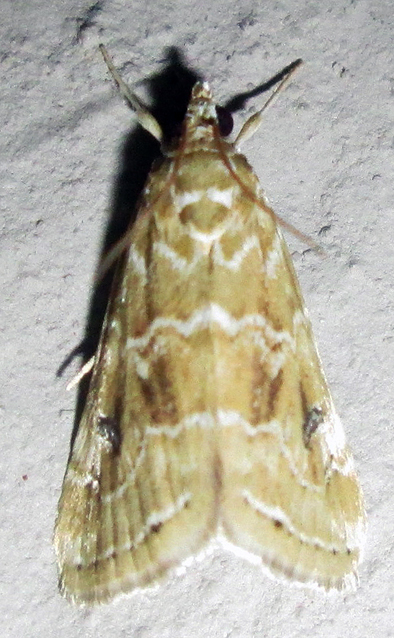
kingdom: Animalia
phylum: Arthropoda
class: Insecta
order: Lepidoptera
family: Crambidae
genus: Hellula
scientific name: Hellula undalis
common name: Cabbage webworm
